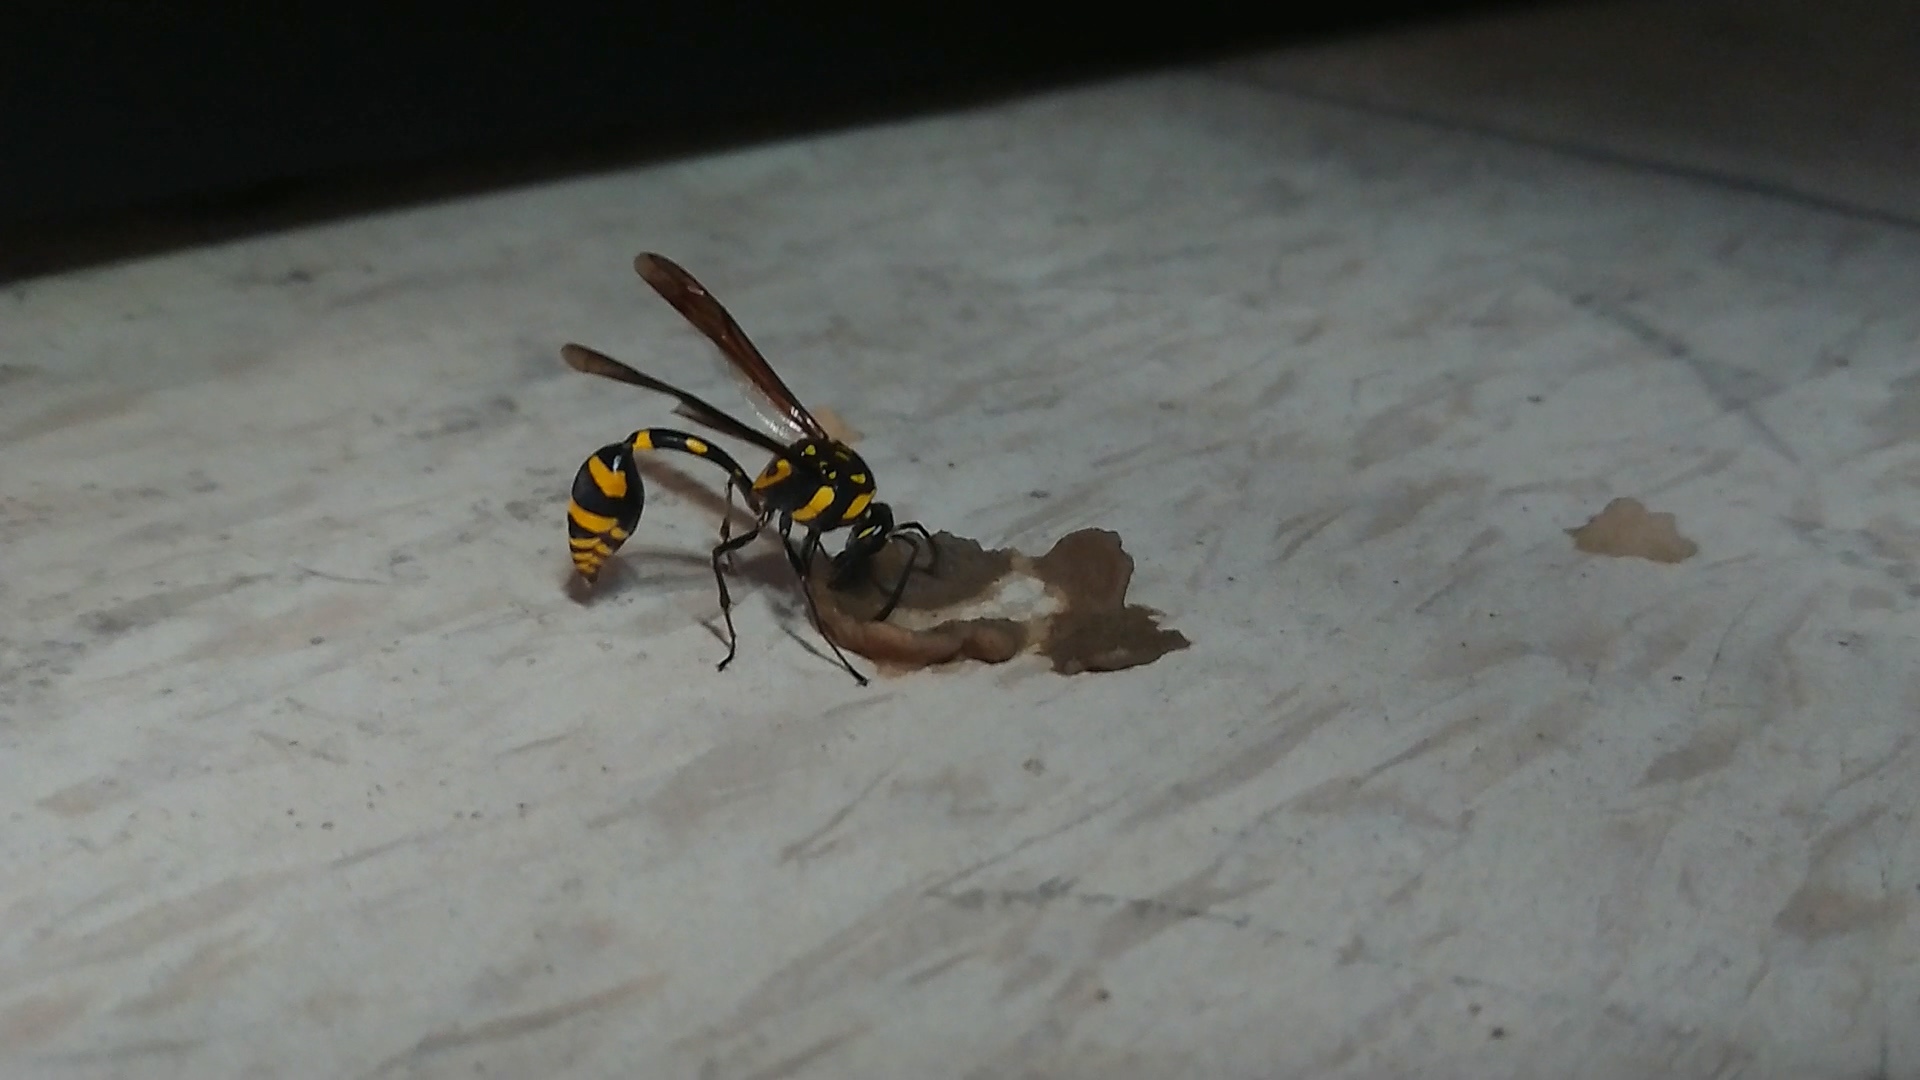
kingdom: Animalia
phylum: Arthropoda
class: Insecta
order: Hymenoptera
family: Eumenidae
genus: Phimenes
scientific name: Phimenes flavopictus
